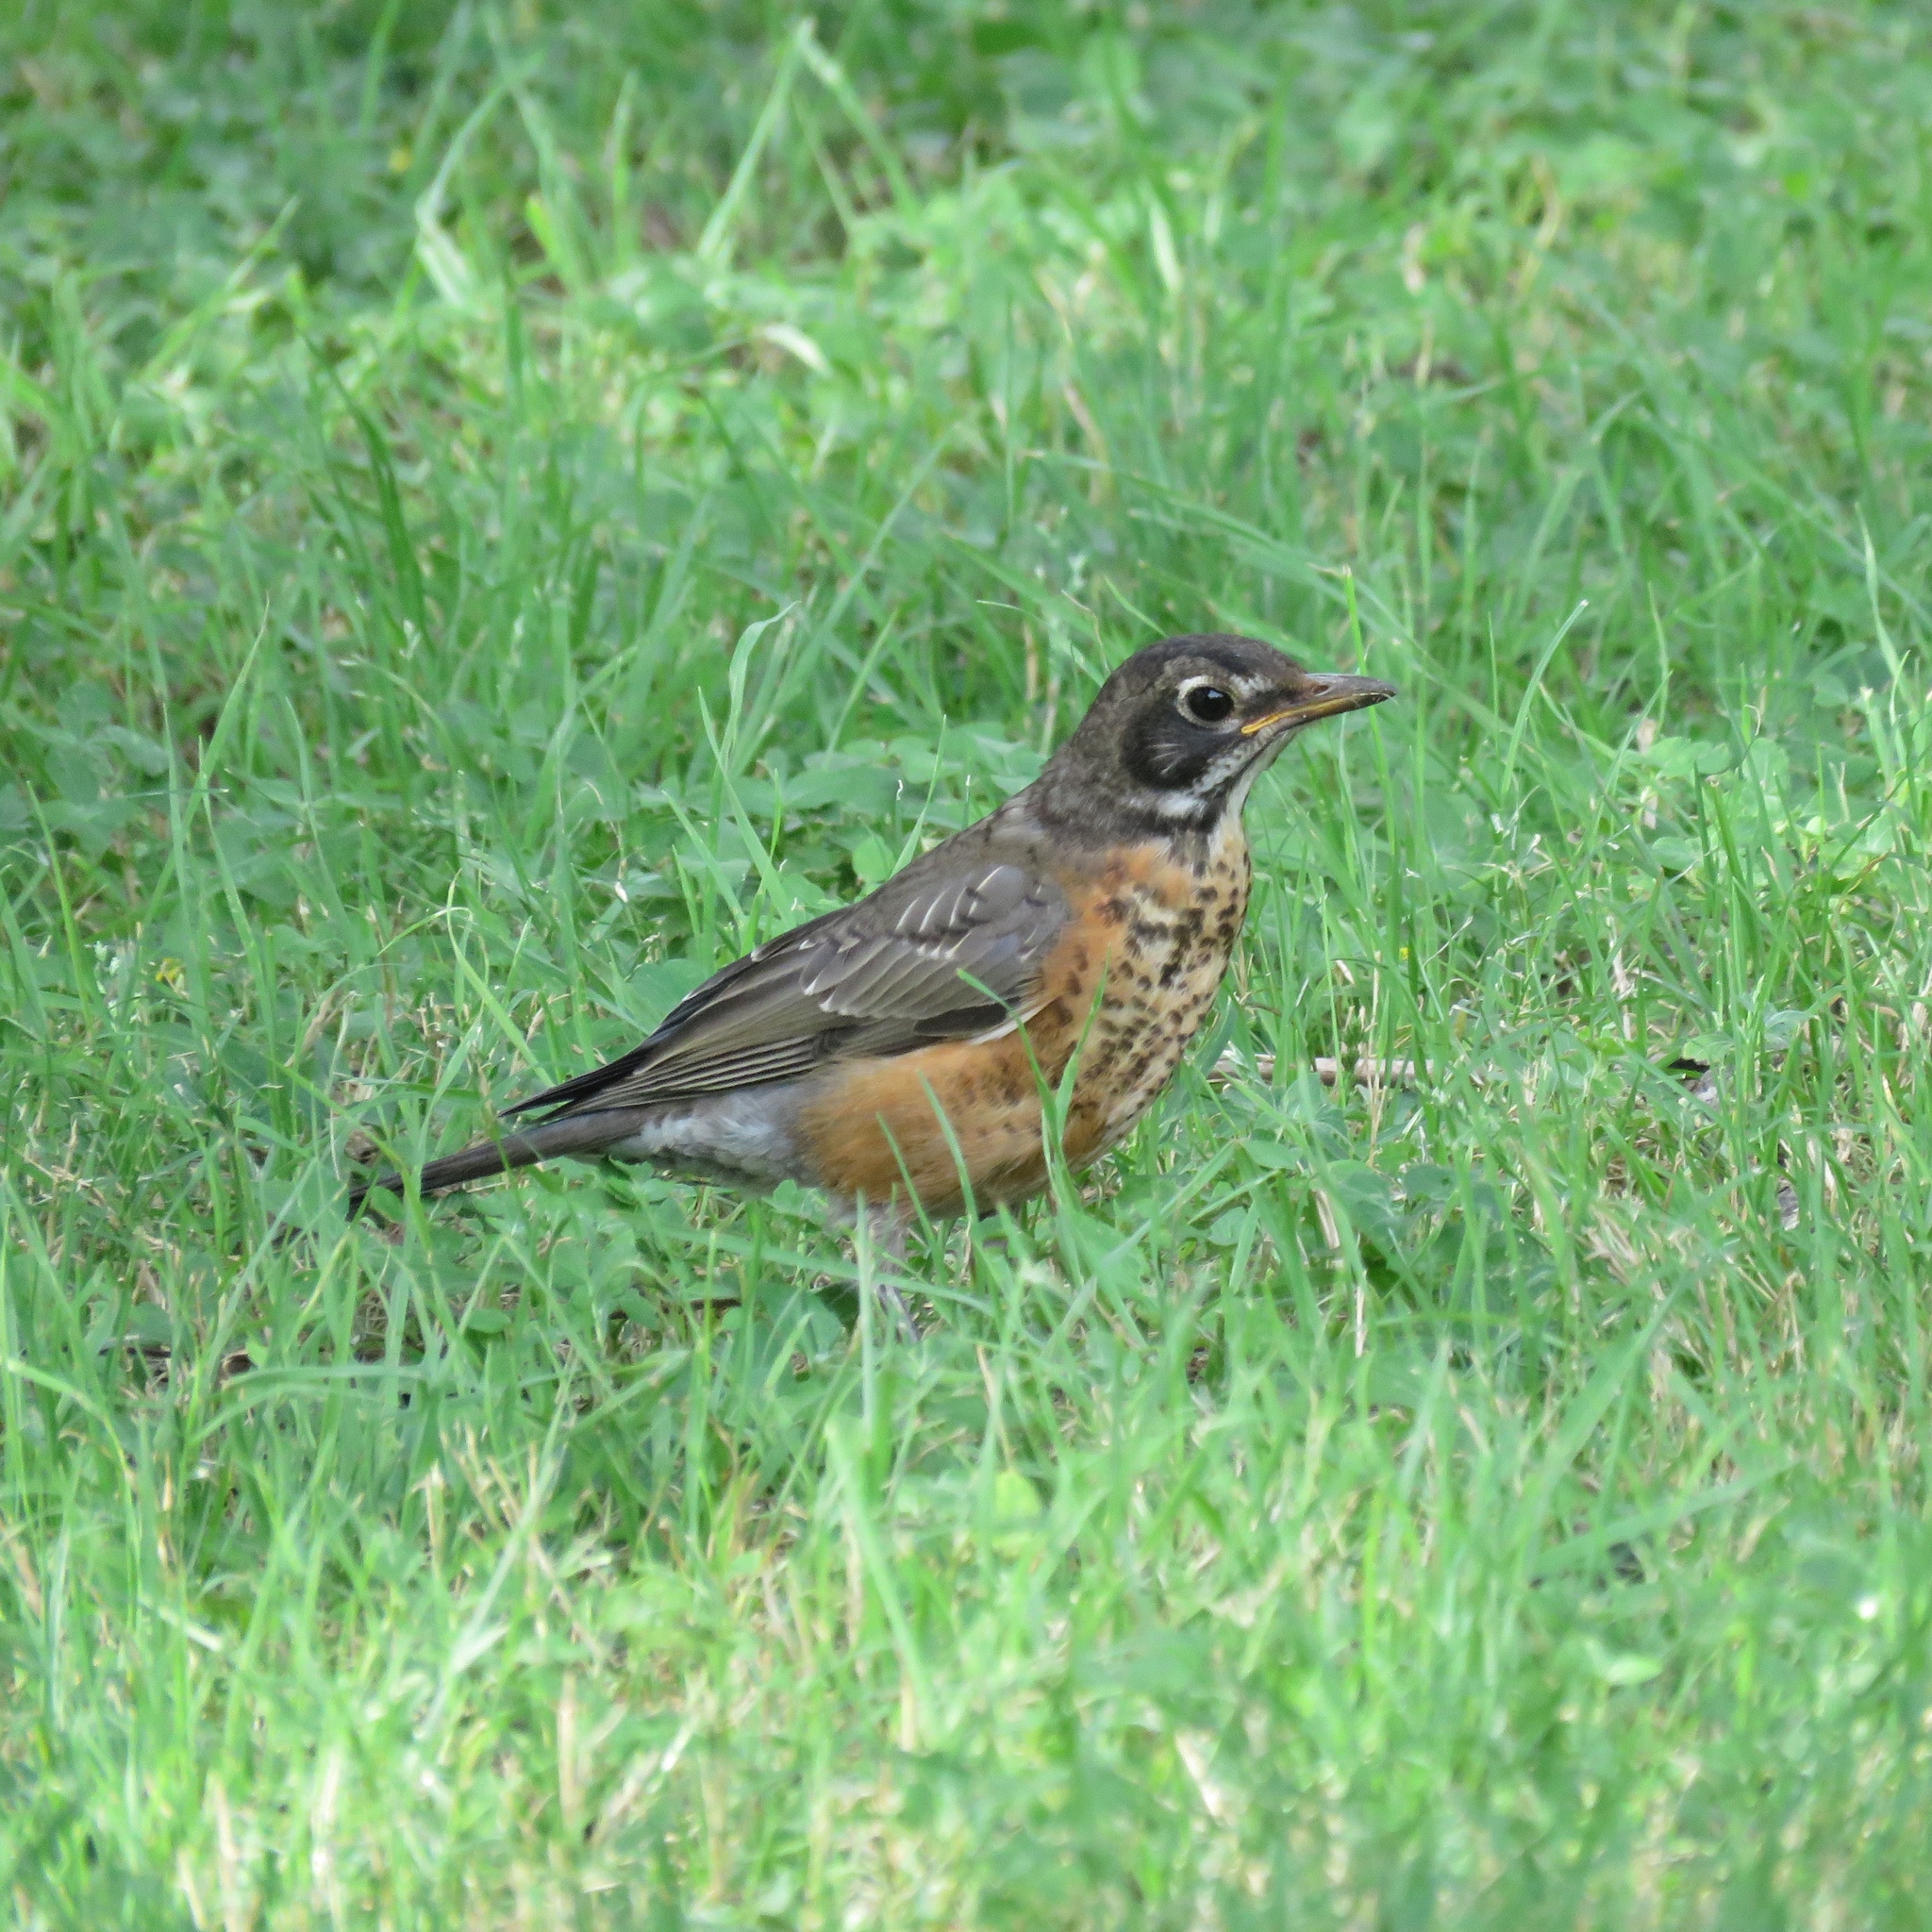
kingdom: Animalia
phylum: Chordata
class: Aves
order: Passeriformes
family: Turdidae
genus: Turdus
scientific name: Turdus migratorius
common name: American robin
